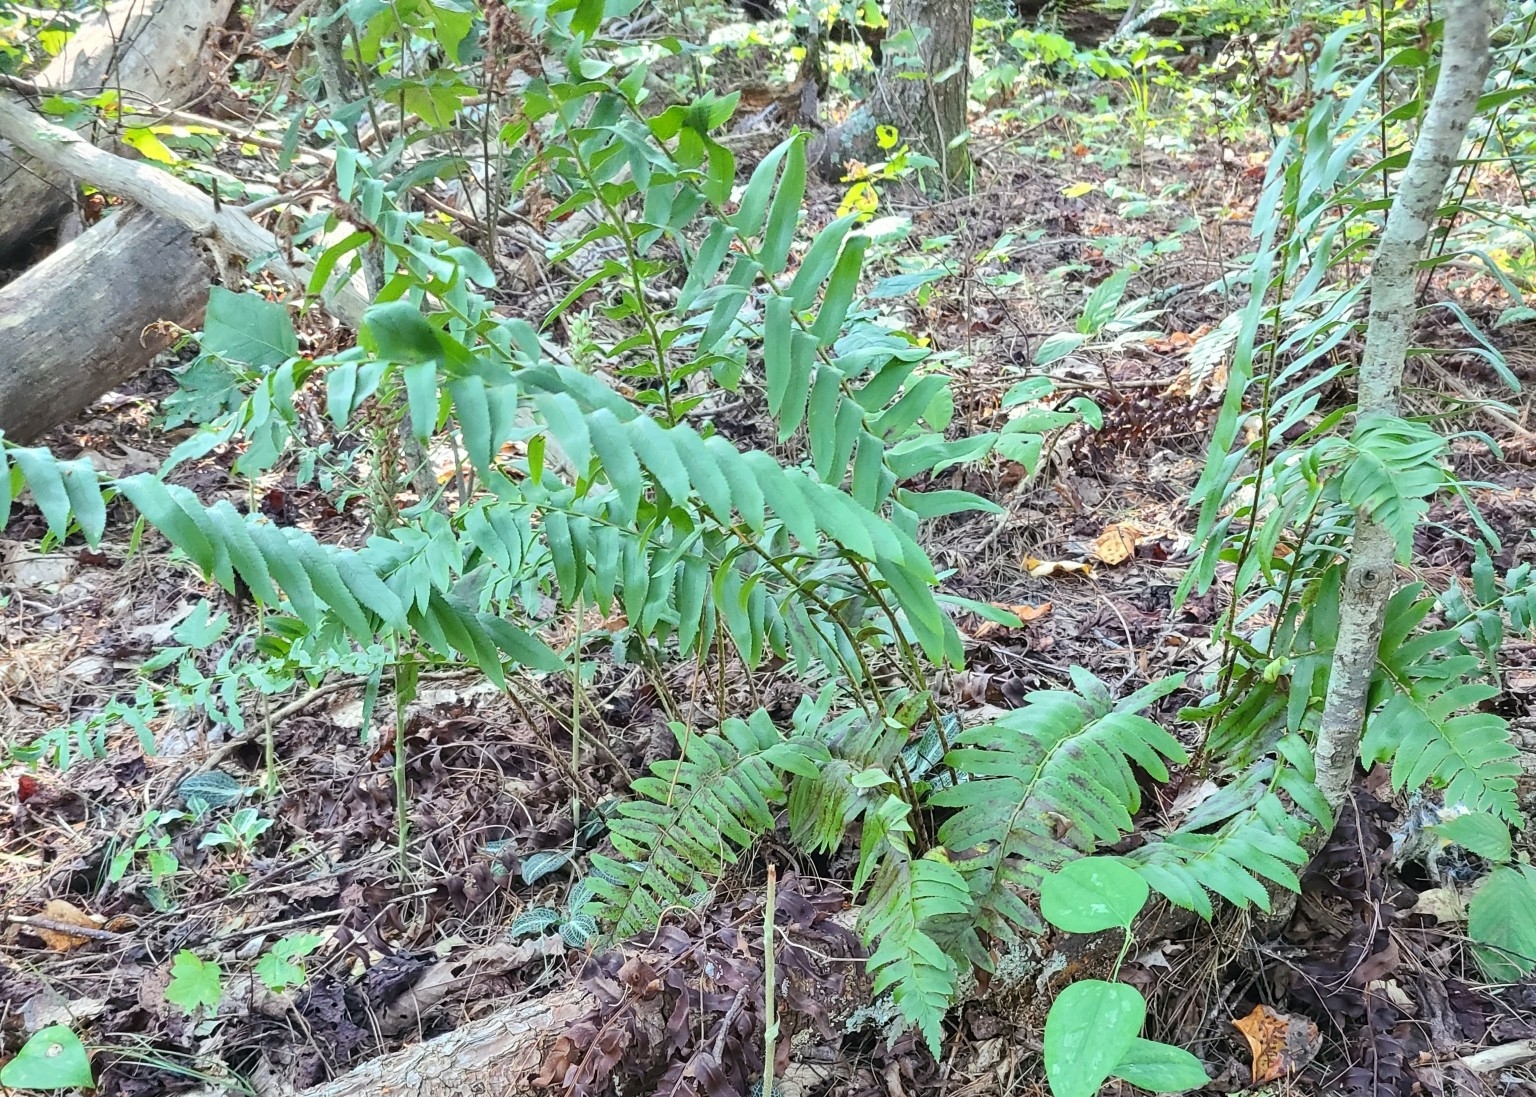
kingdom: Plantae
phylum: Tracheophyta
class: Polypodiopsida
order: Polypodiales
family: Dryopteridaceae
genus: Polystichum
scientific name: Polystichum acrostichoides
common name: Christmas fern
